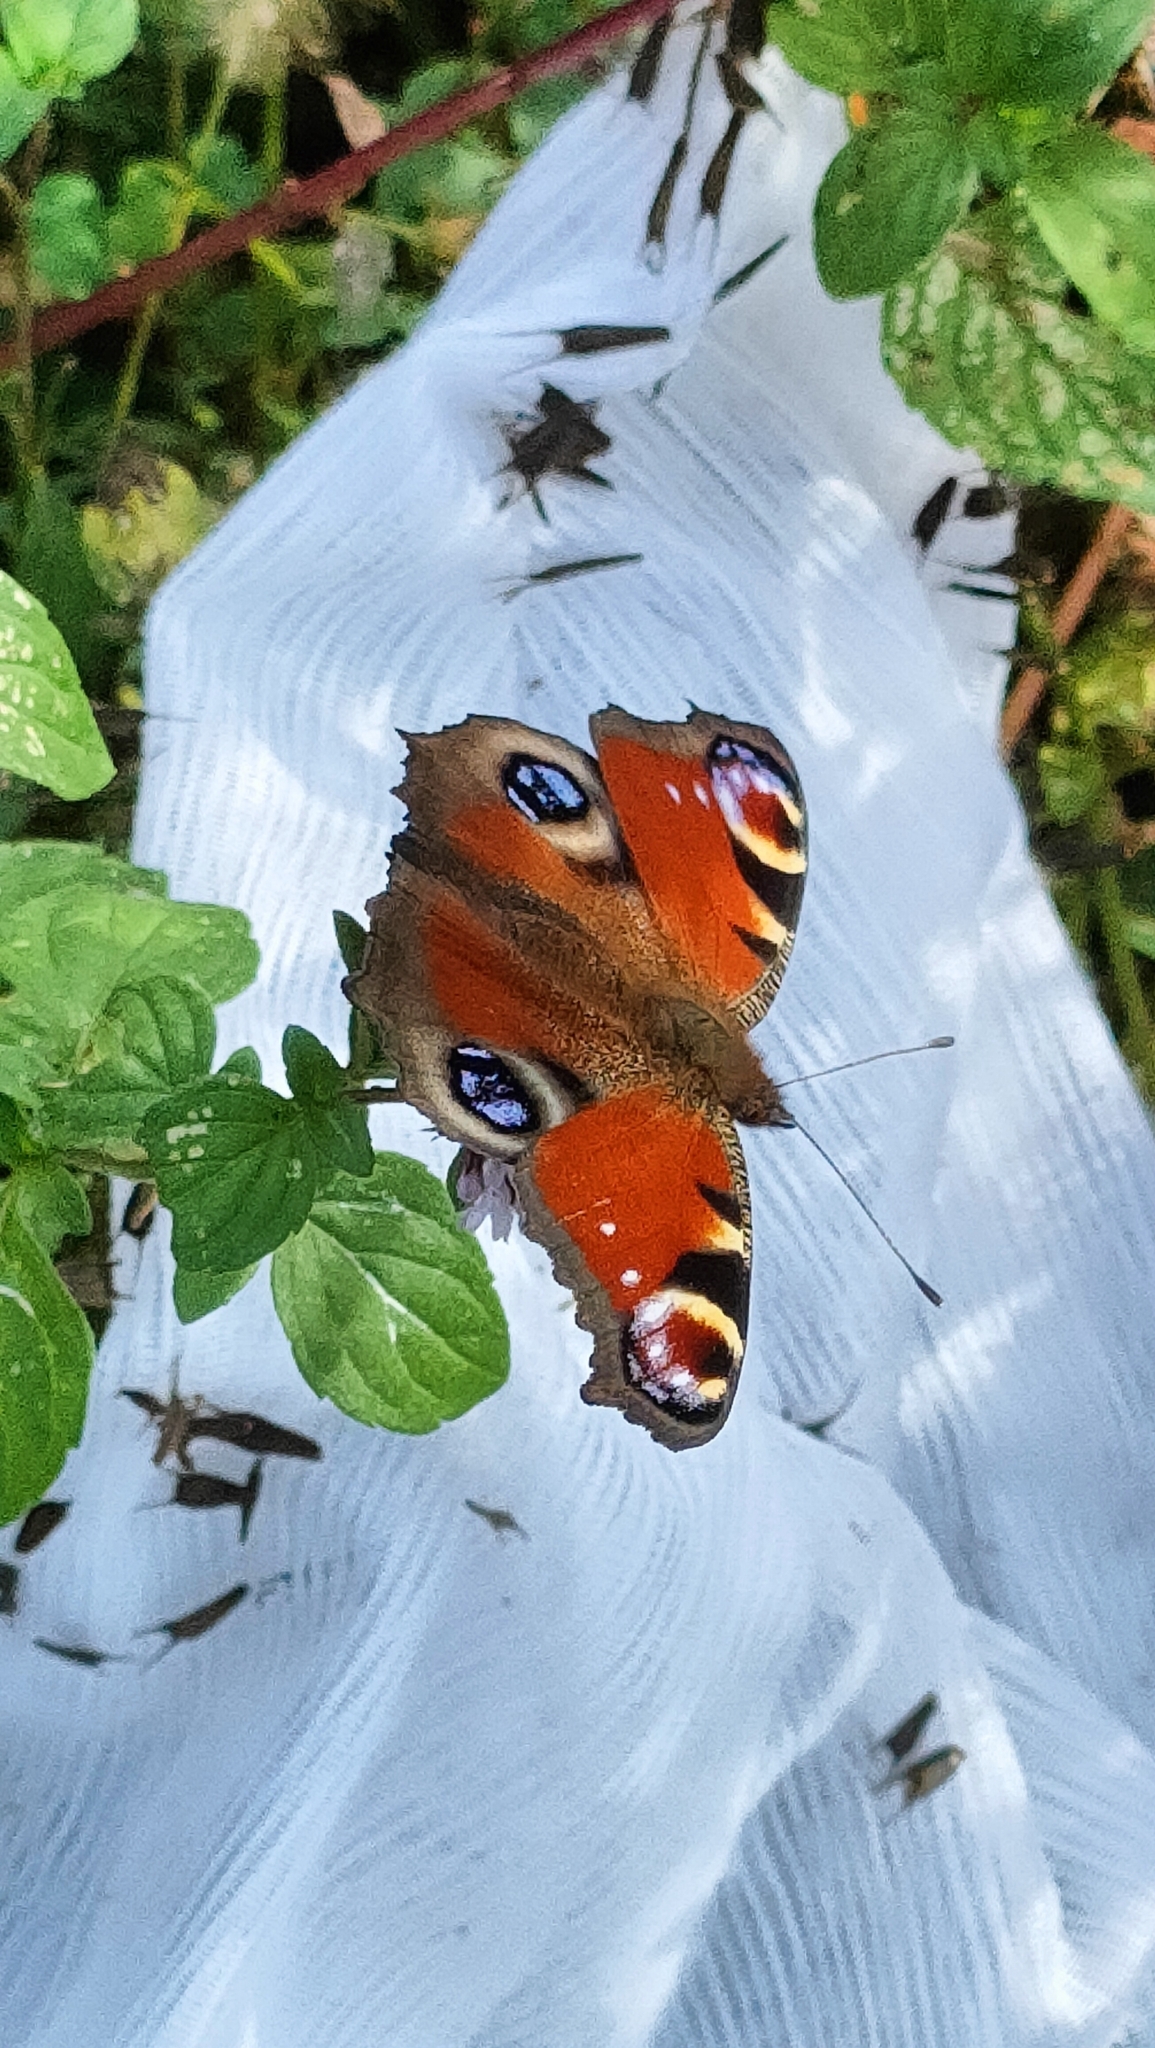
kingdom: Animalia
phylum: Arthropoda
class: Insecta
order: Lepidoptera
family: Nymphalidae
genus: Aglais
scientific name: Aglais io
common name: Peacock
